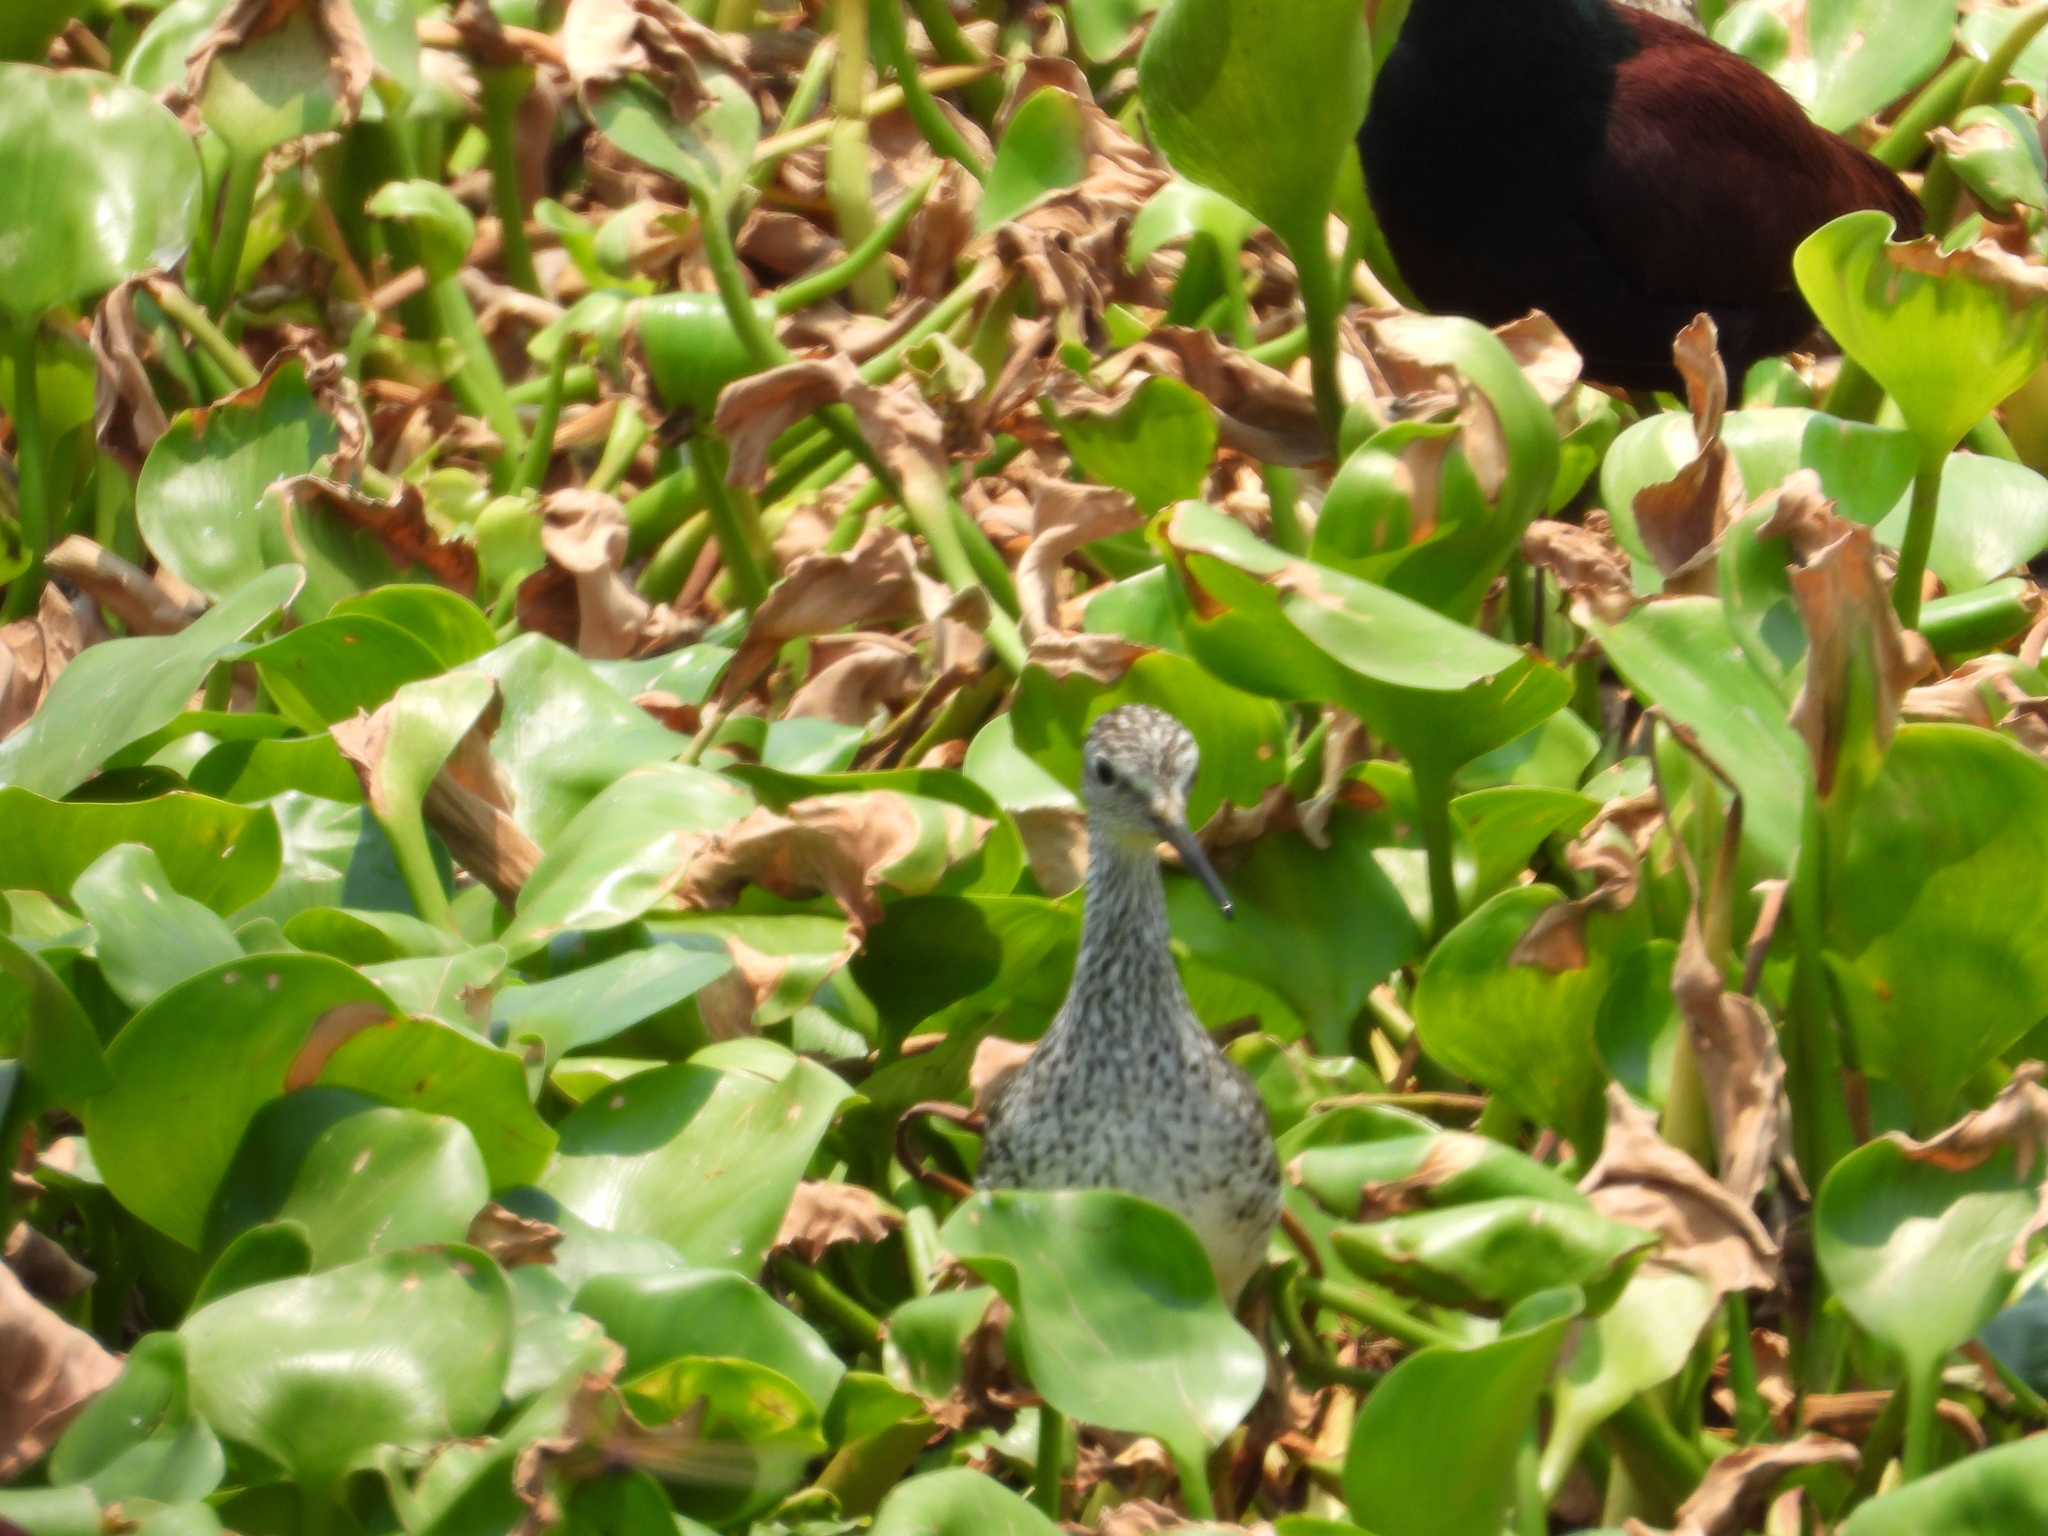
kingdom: Animalia
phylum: Chordata
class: Aves
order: Charadriiformes
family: Scolopacidae
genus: Tringa
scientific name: Tringa flavipes
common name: Lesser yellowlegs
